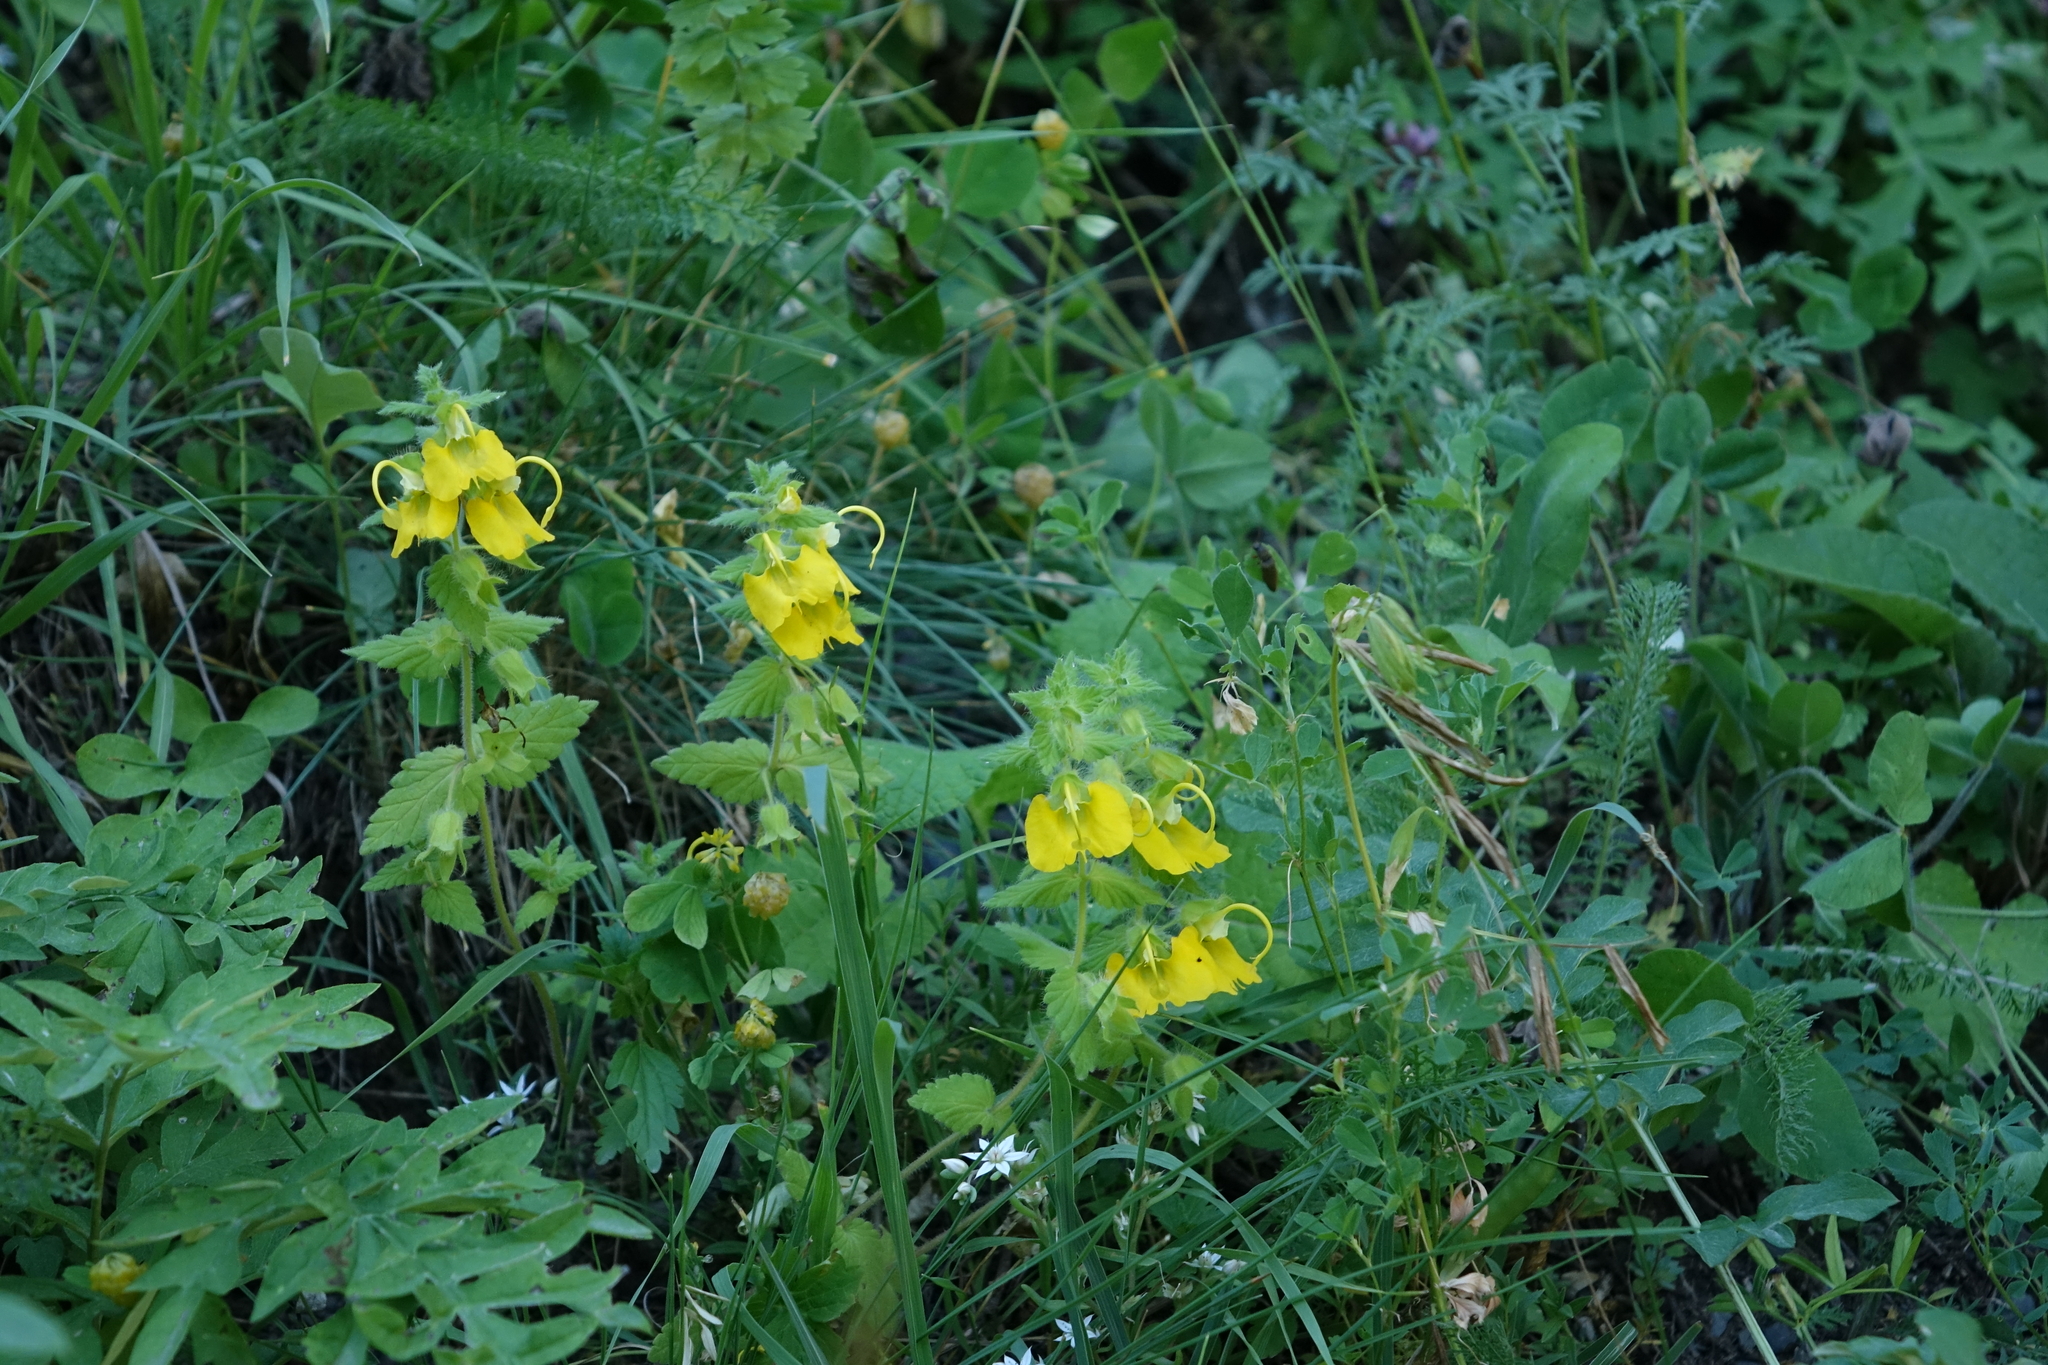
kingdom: Plantae
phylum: Tracheophyta
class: Magnoliopsida
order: Lamiales
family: Orobanchaceae
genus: Rhynchocorys
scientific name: Rhynchocorys orientalis
